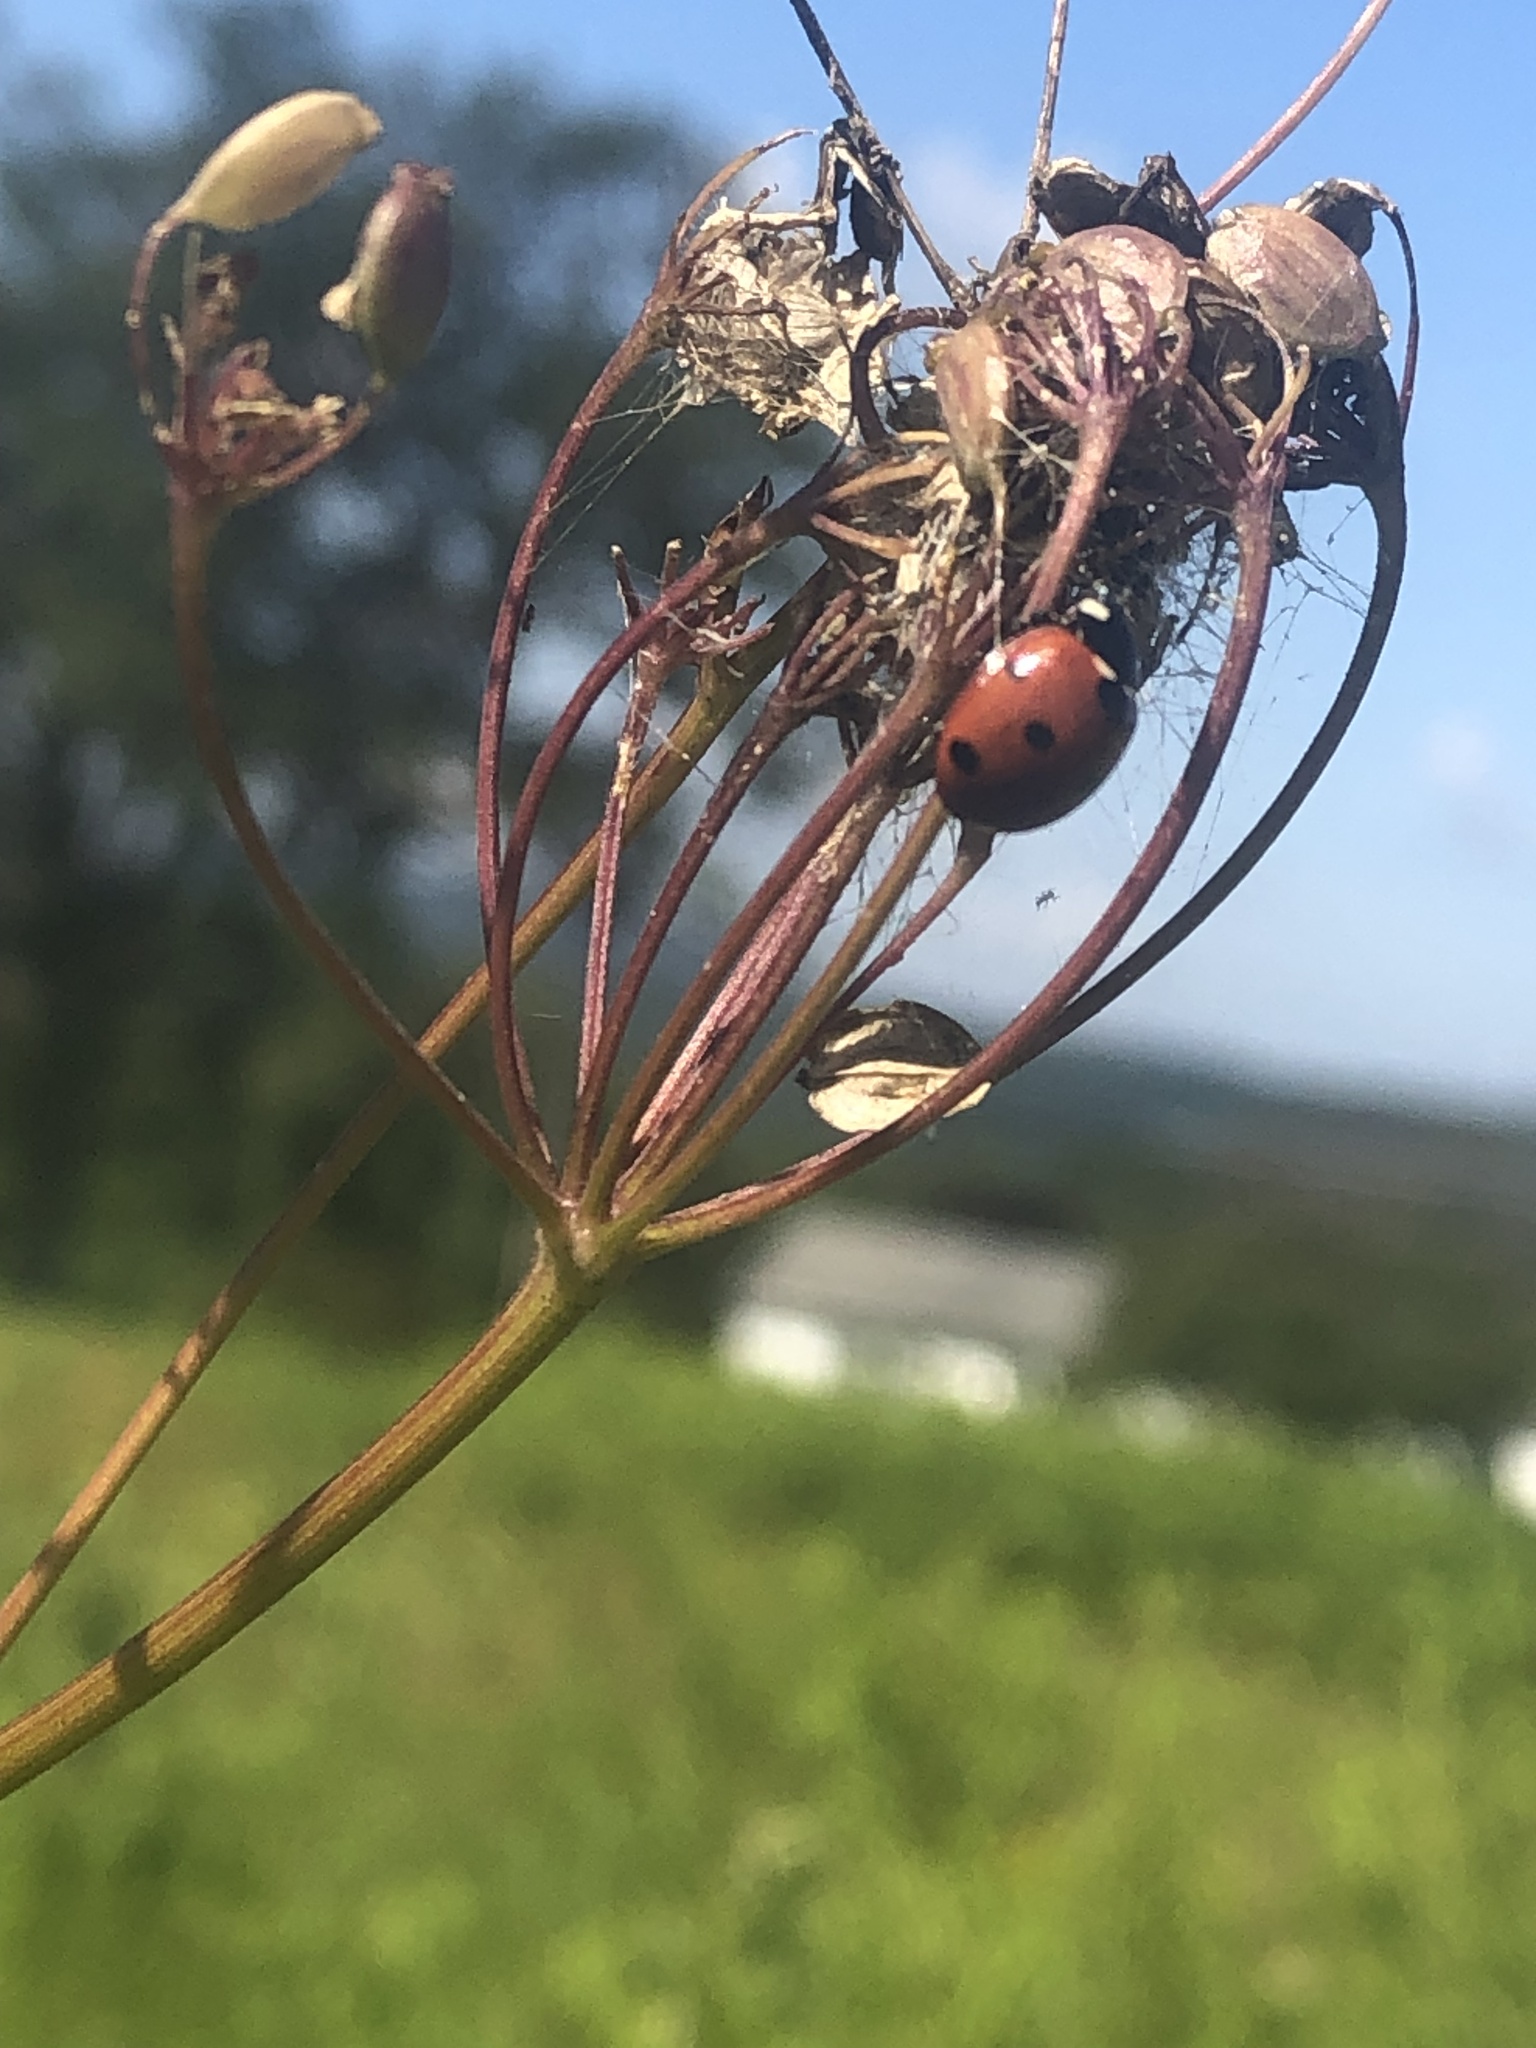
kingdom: Animalia
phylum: Arthropoda
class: Insecta
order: Coleoptera
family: Coccinellidae
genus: Coccinella
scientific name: Coccinella septempunctata
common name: Sevenspotted lady beetle
